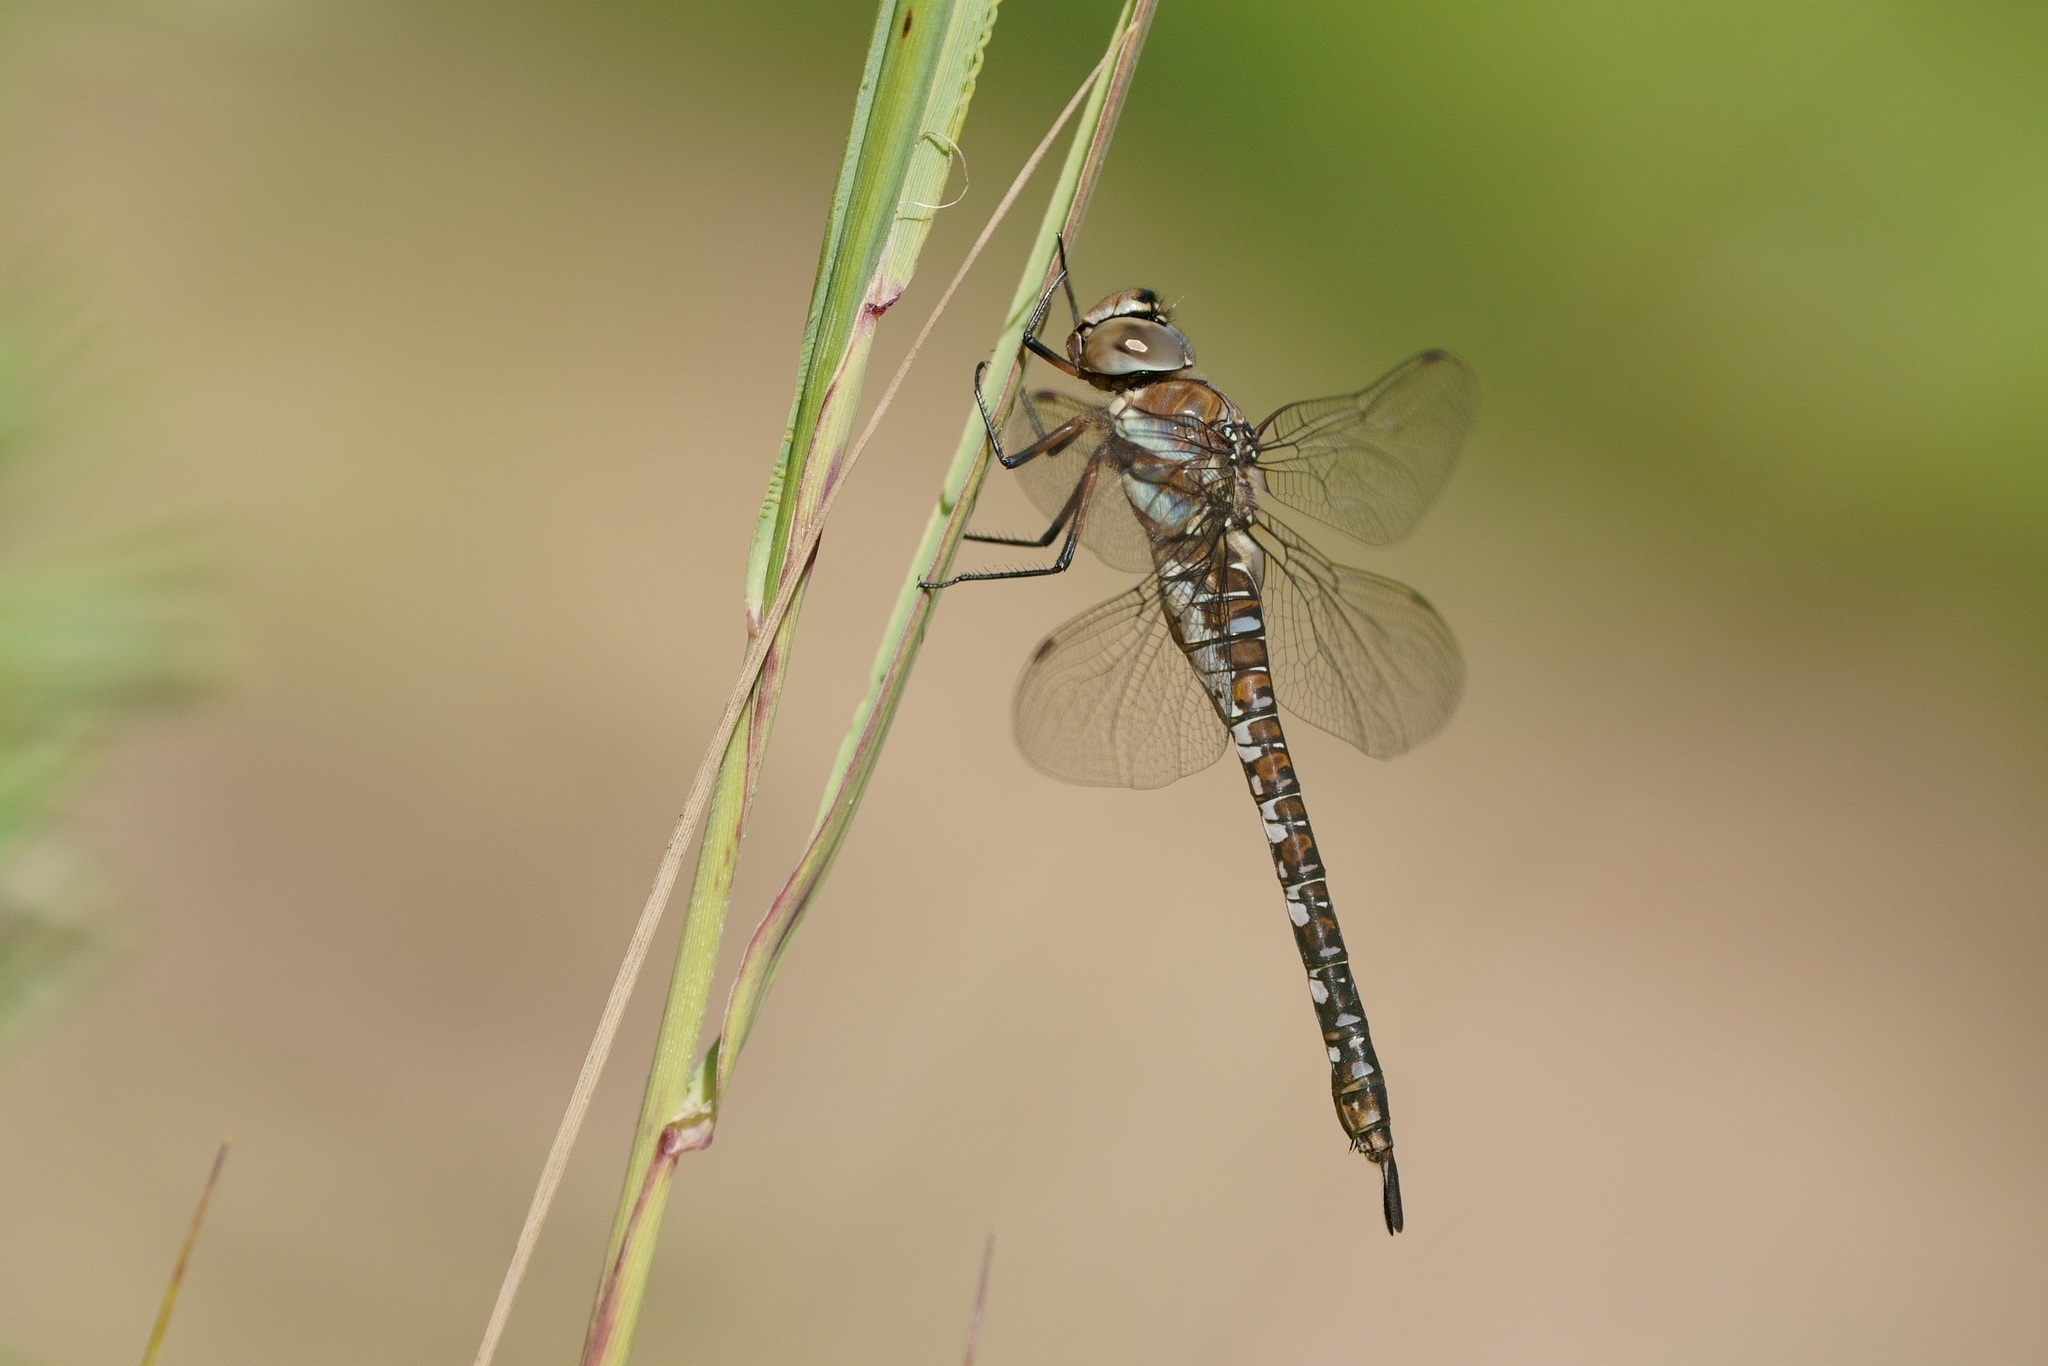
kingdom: Animalia
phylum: Arthropoda
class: Insecta
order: Odonata
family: Aeshnidae
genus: Aeshna
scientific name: Aeshna mixta
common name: Migrant hawker
